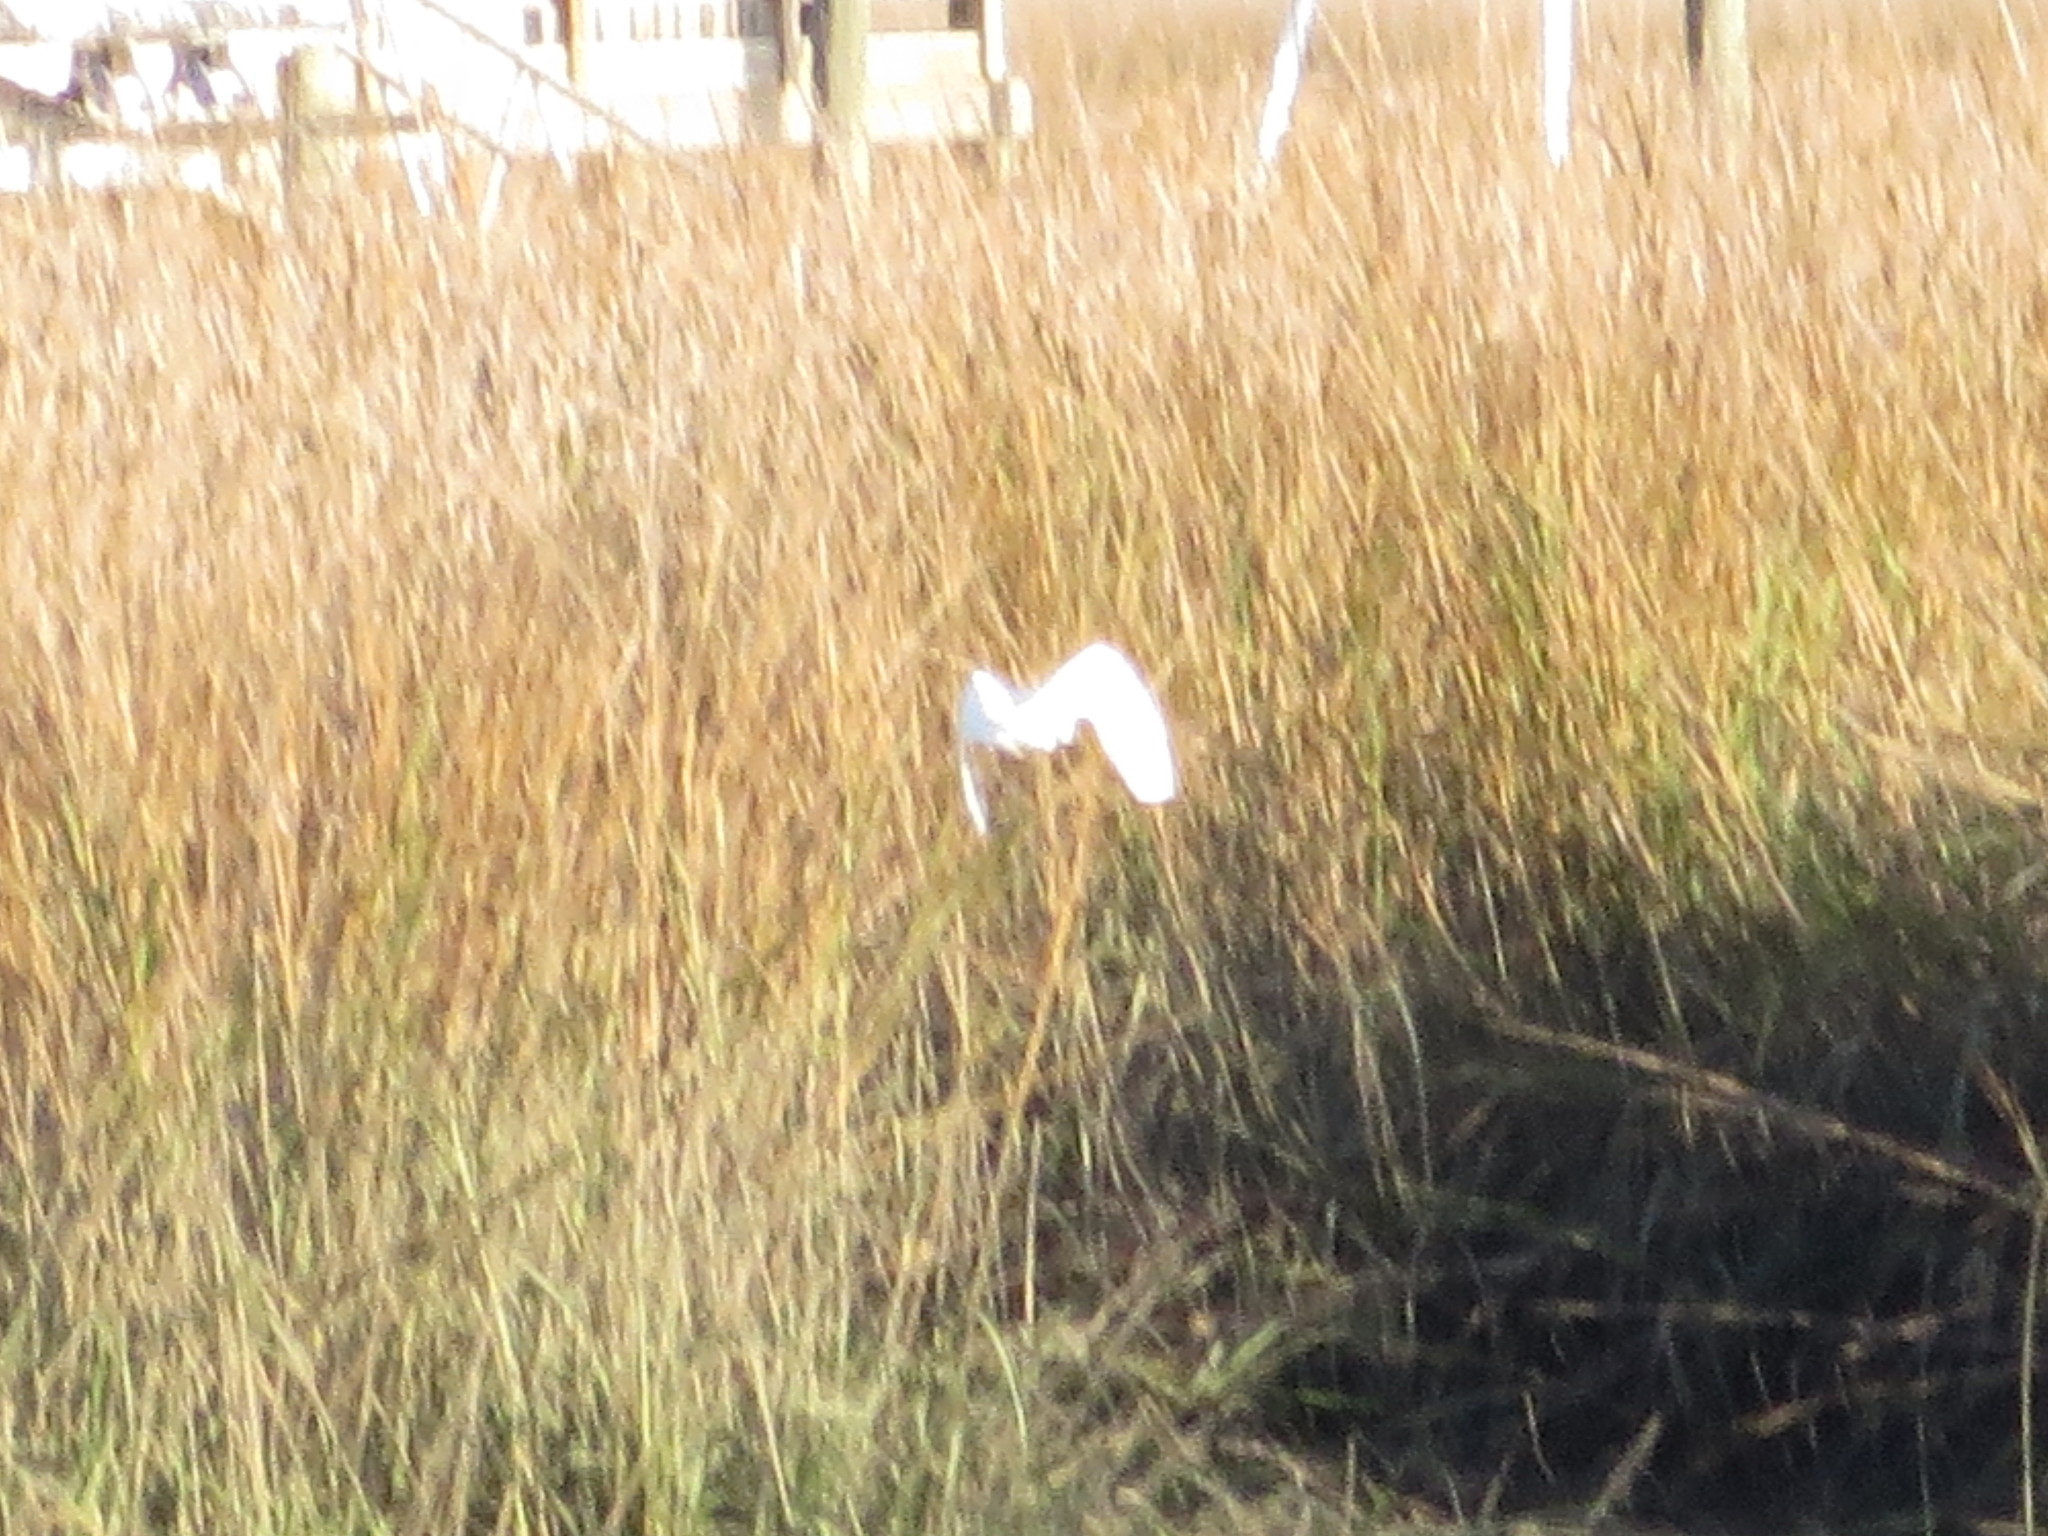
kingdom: Animalia
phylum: Chordata
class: Aves
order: Pelecaniformes
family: Ardeidae
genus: Egretta
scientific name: Egretta thula
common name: Snowy egret
